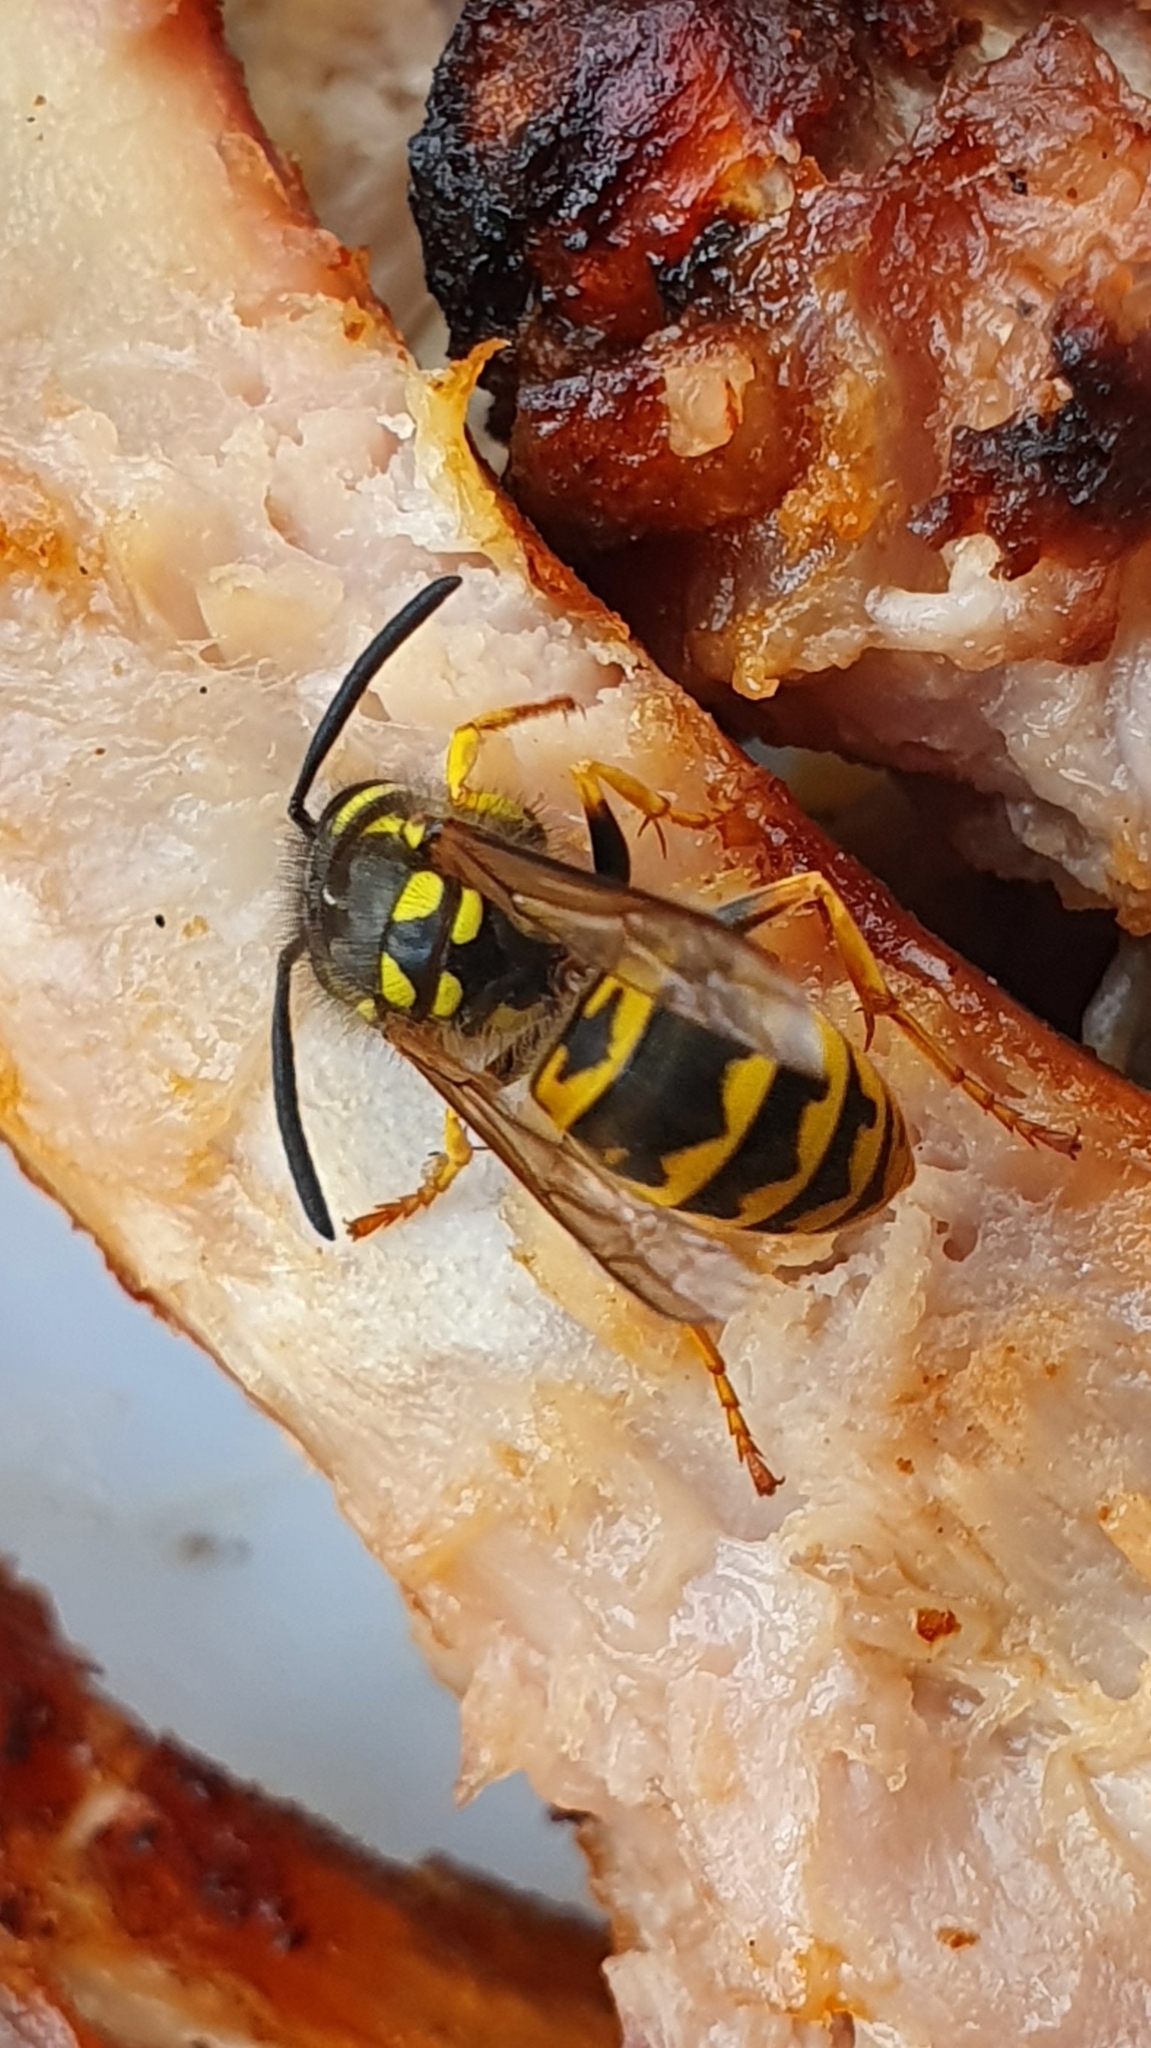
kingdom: Animalia
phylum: Arthropoda
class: Insecta
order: Hymenoptera
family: Vespidae
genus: Vespula
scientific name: Vespula germanica
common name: German wasp
